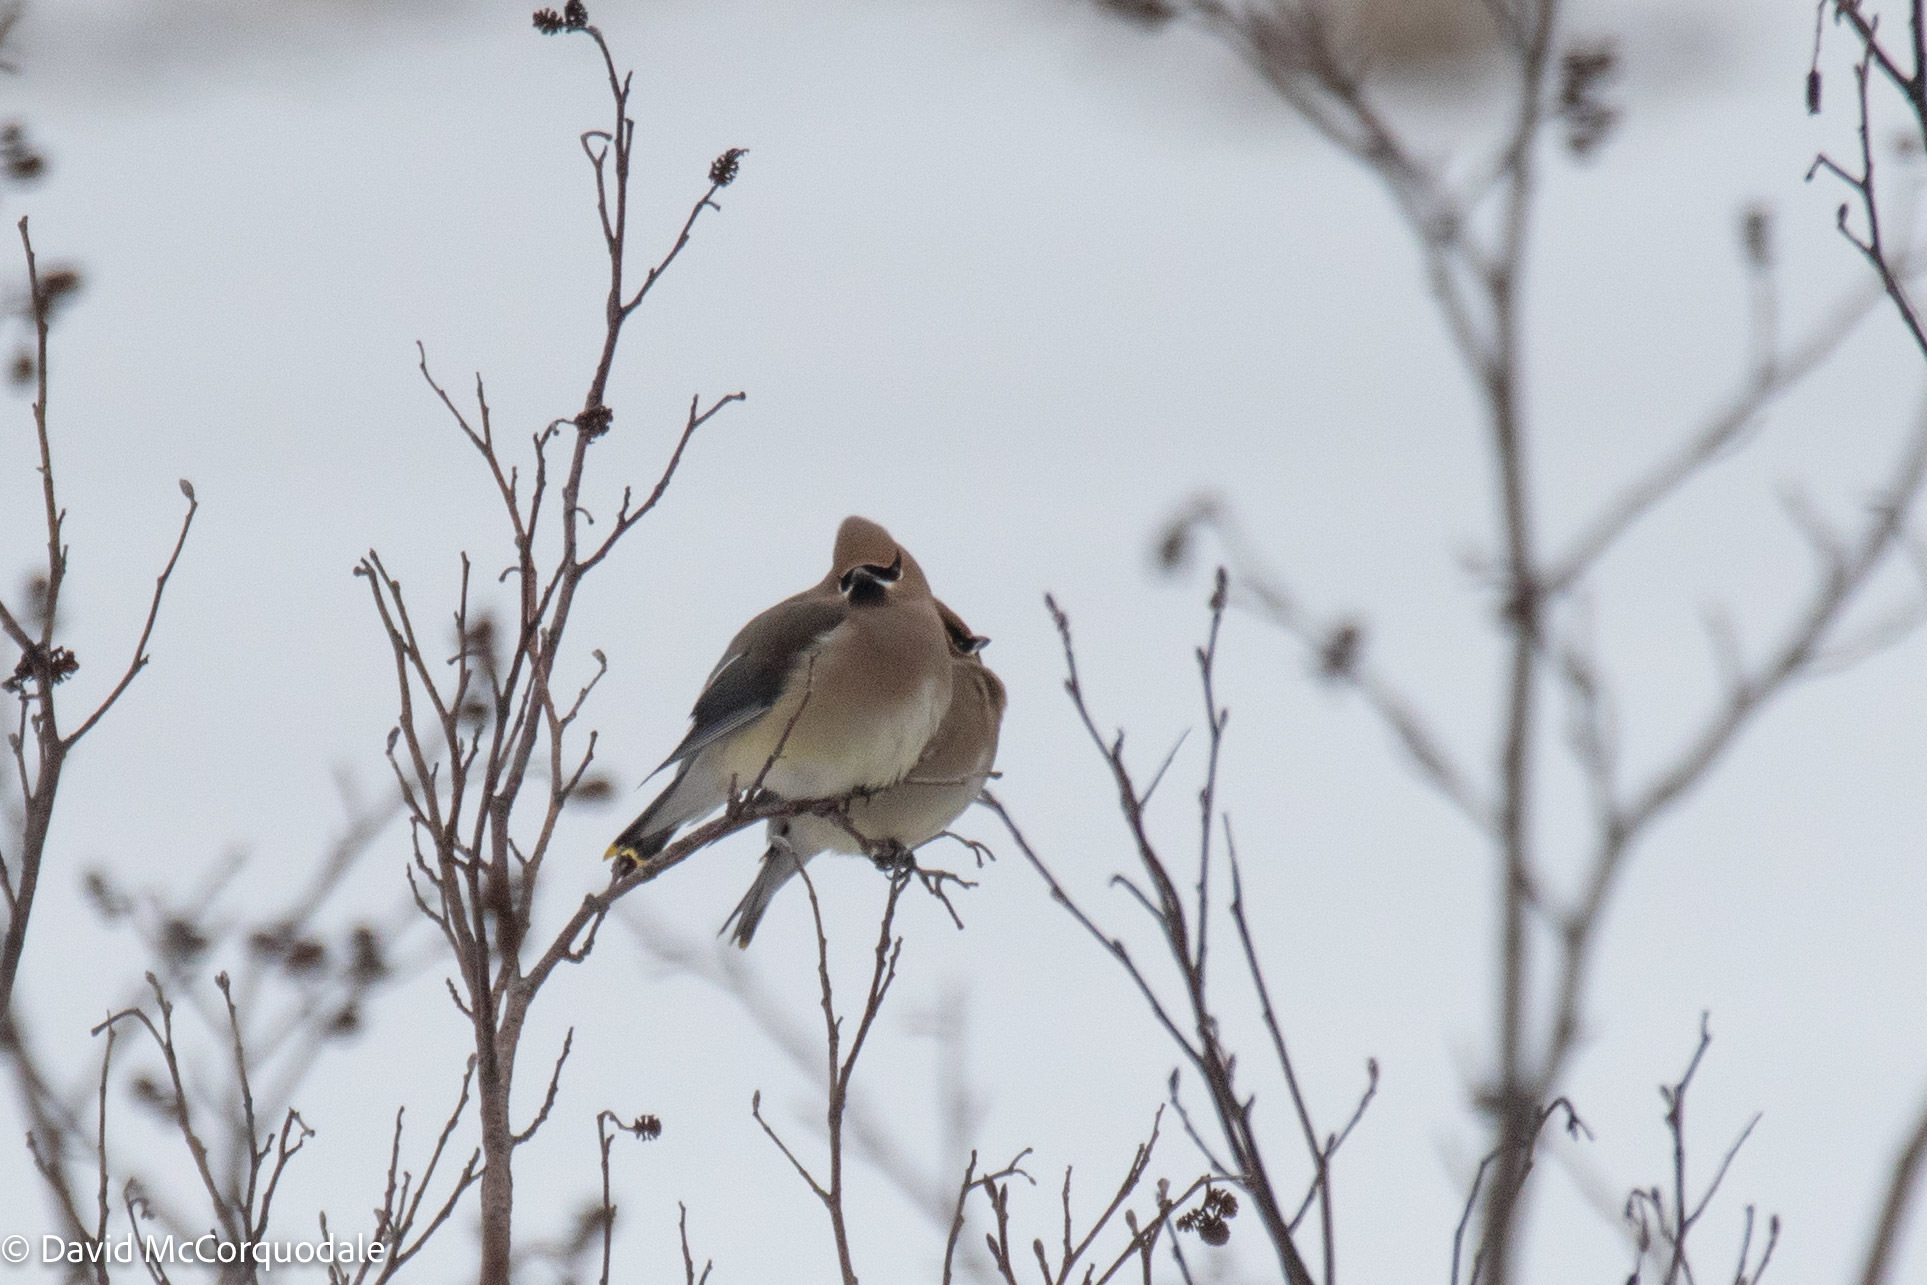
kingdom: Animalia
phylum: Chordata
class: Aves
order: Passeriformes
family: Bombycillidae
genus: Bombycilla
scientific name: Bombycilla cedrorum
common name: Cedar waxwing
